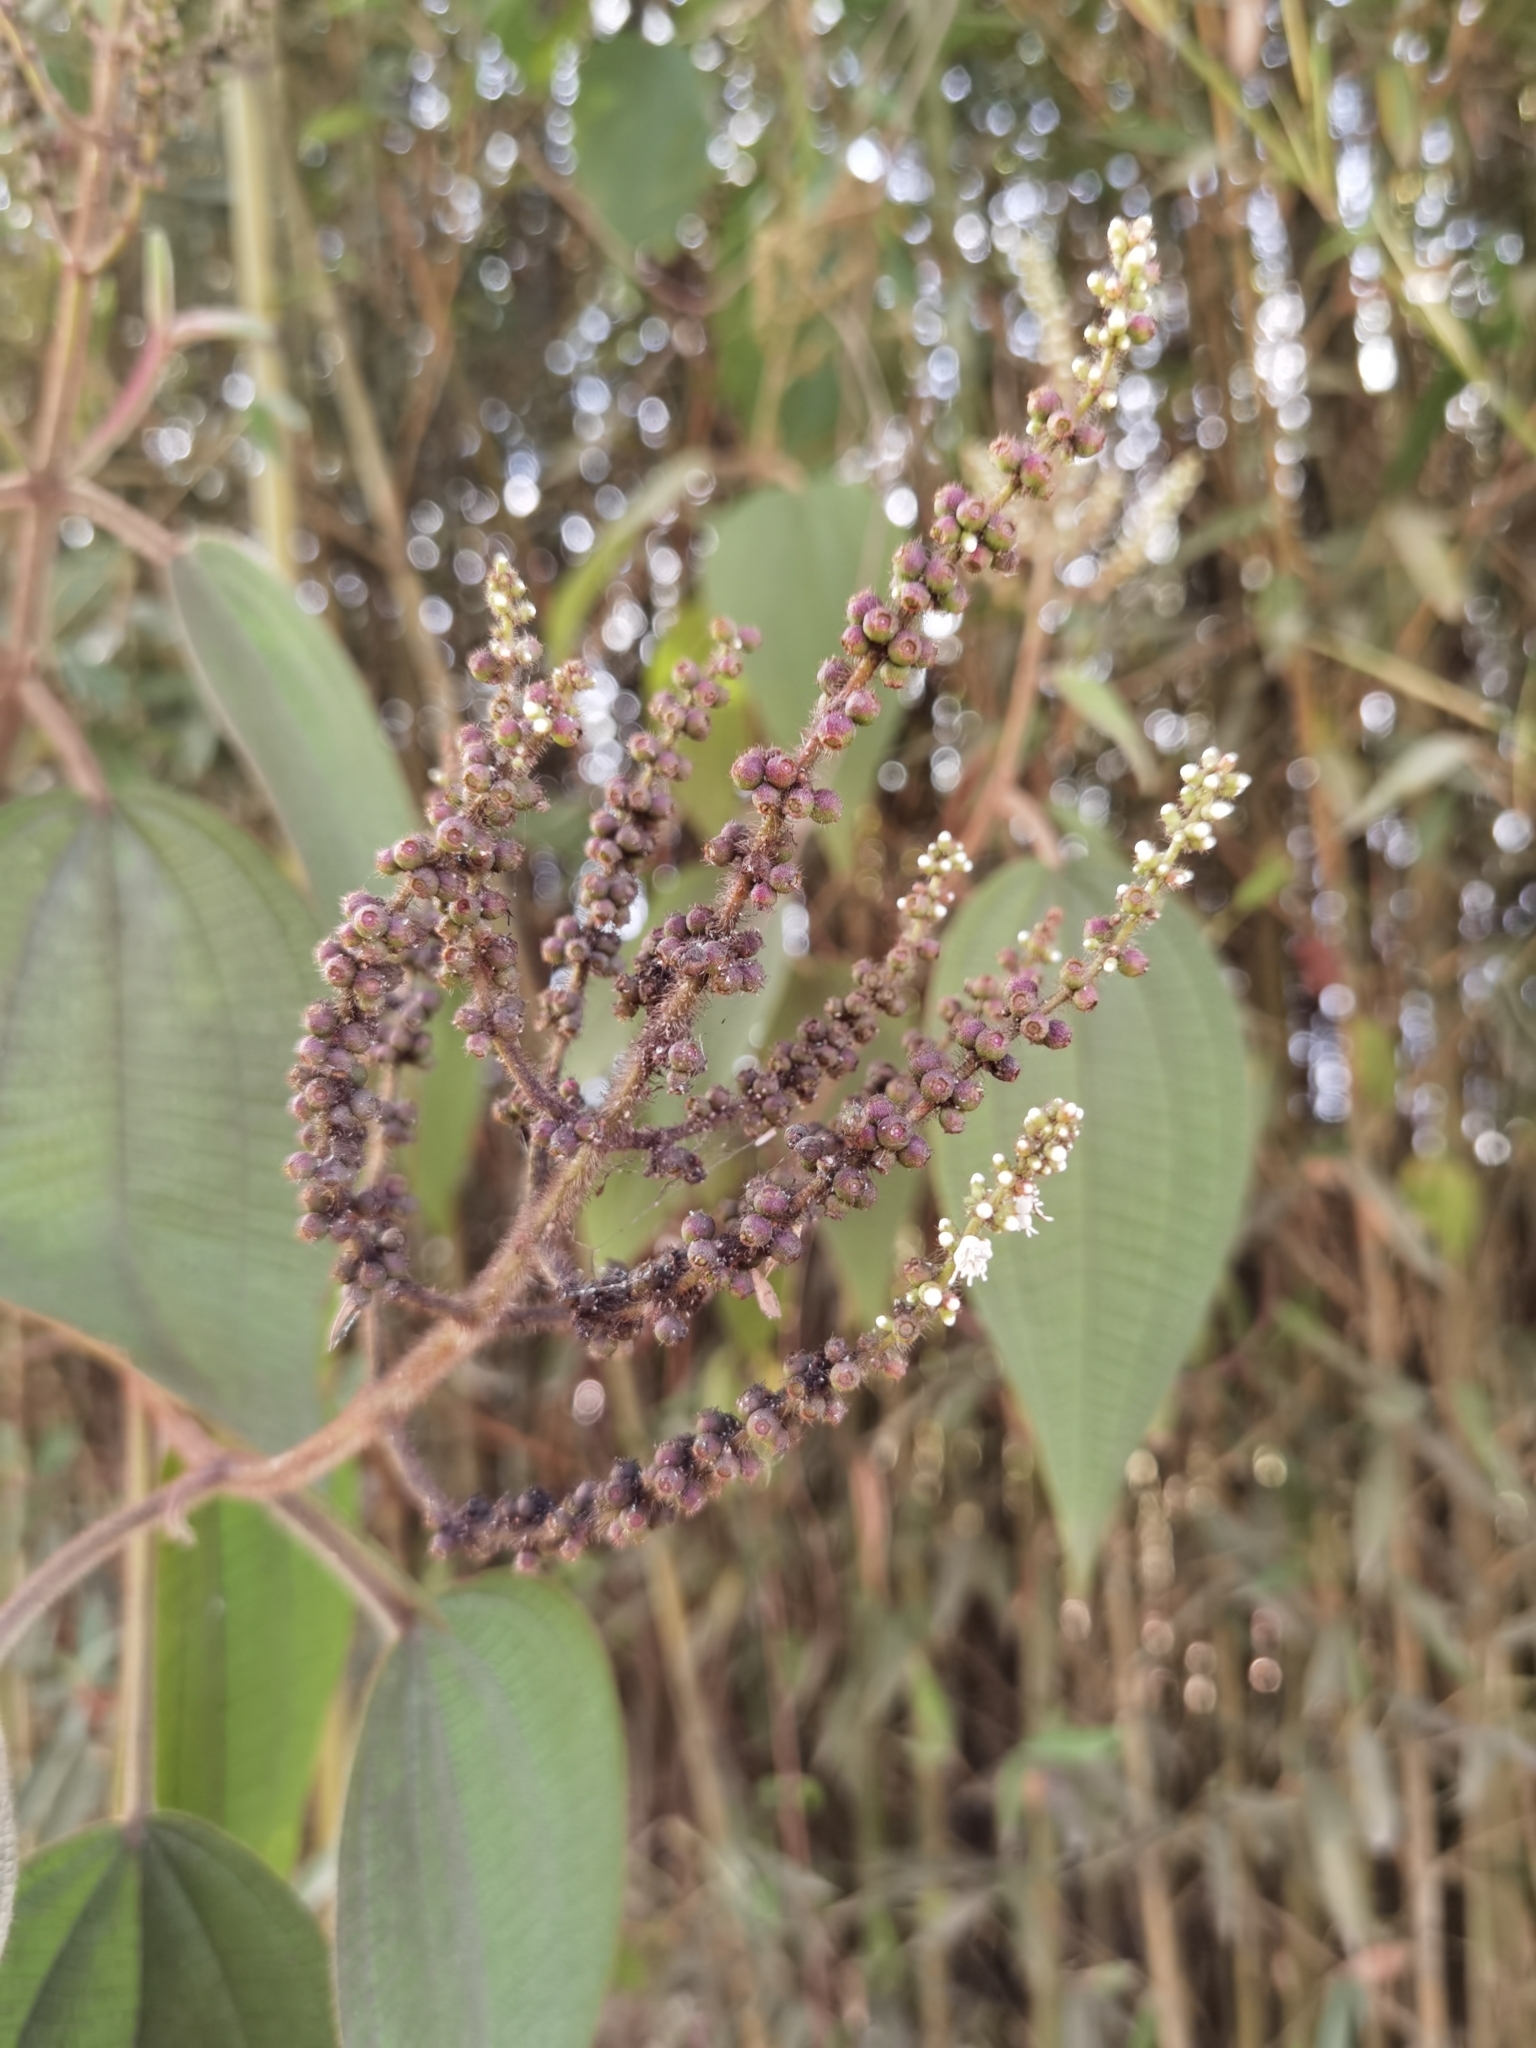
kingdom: Plantae
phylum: Tracheophyta
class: Magnoliopsida
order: Myrtales
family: Melastomataceae
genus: Miconia
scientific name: Miconia aeruginosa
